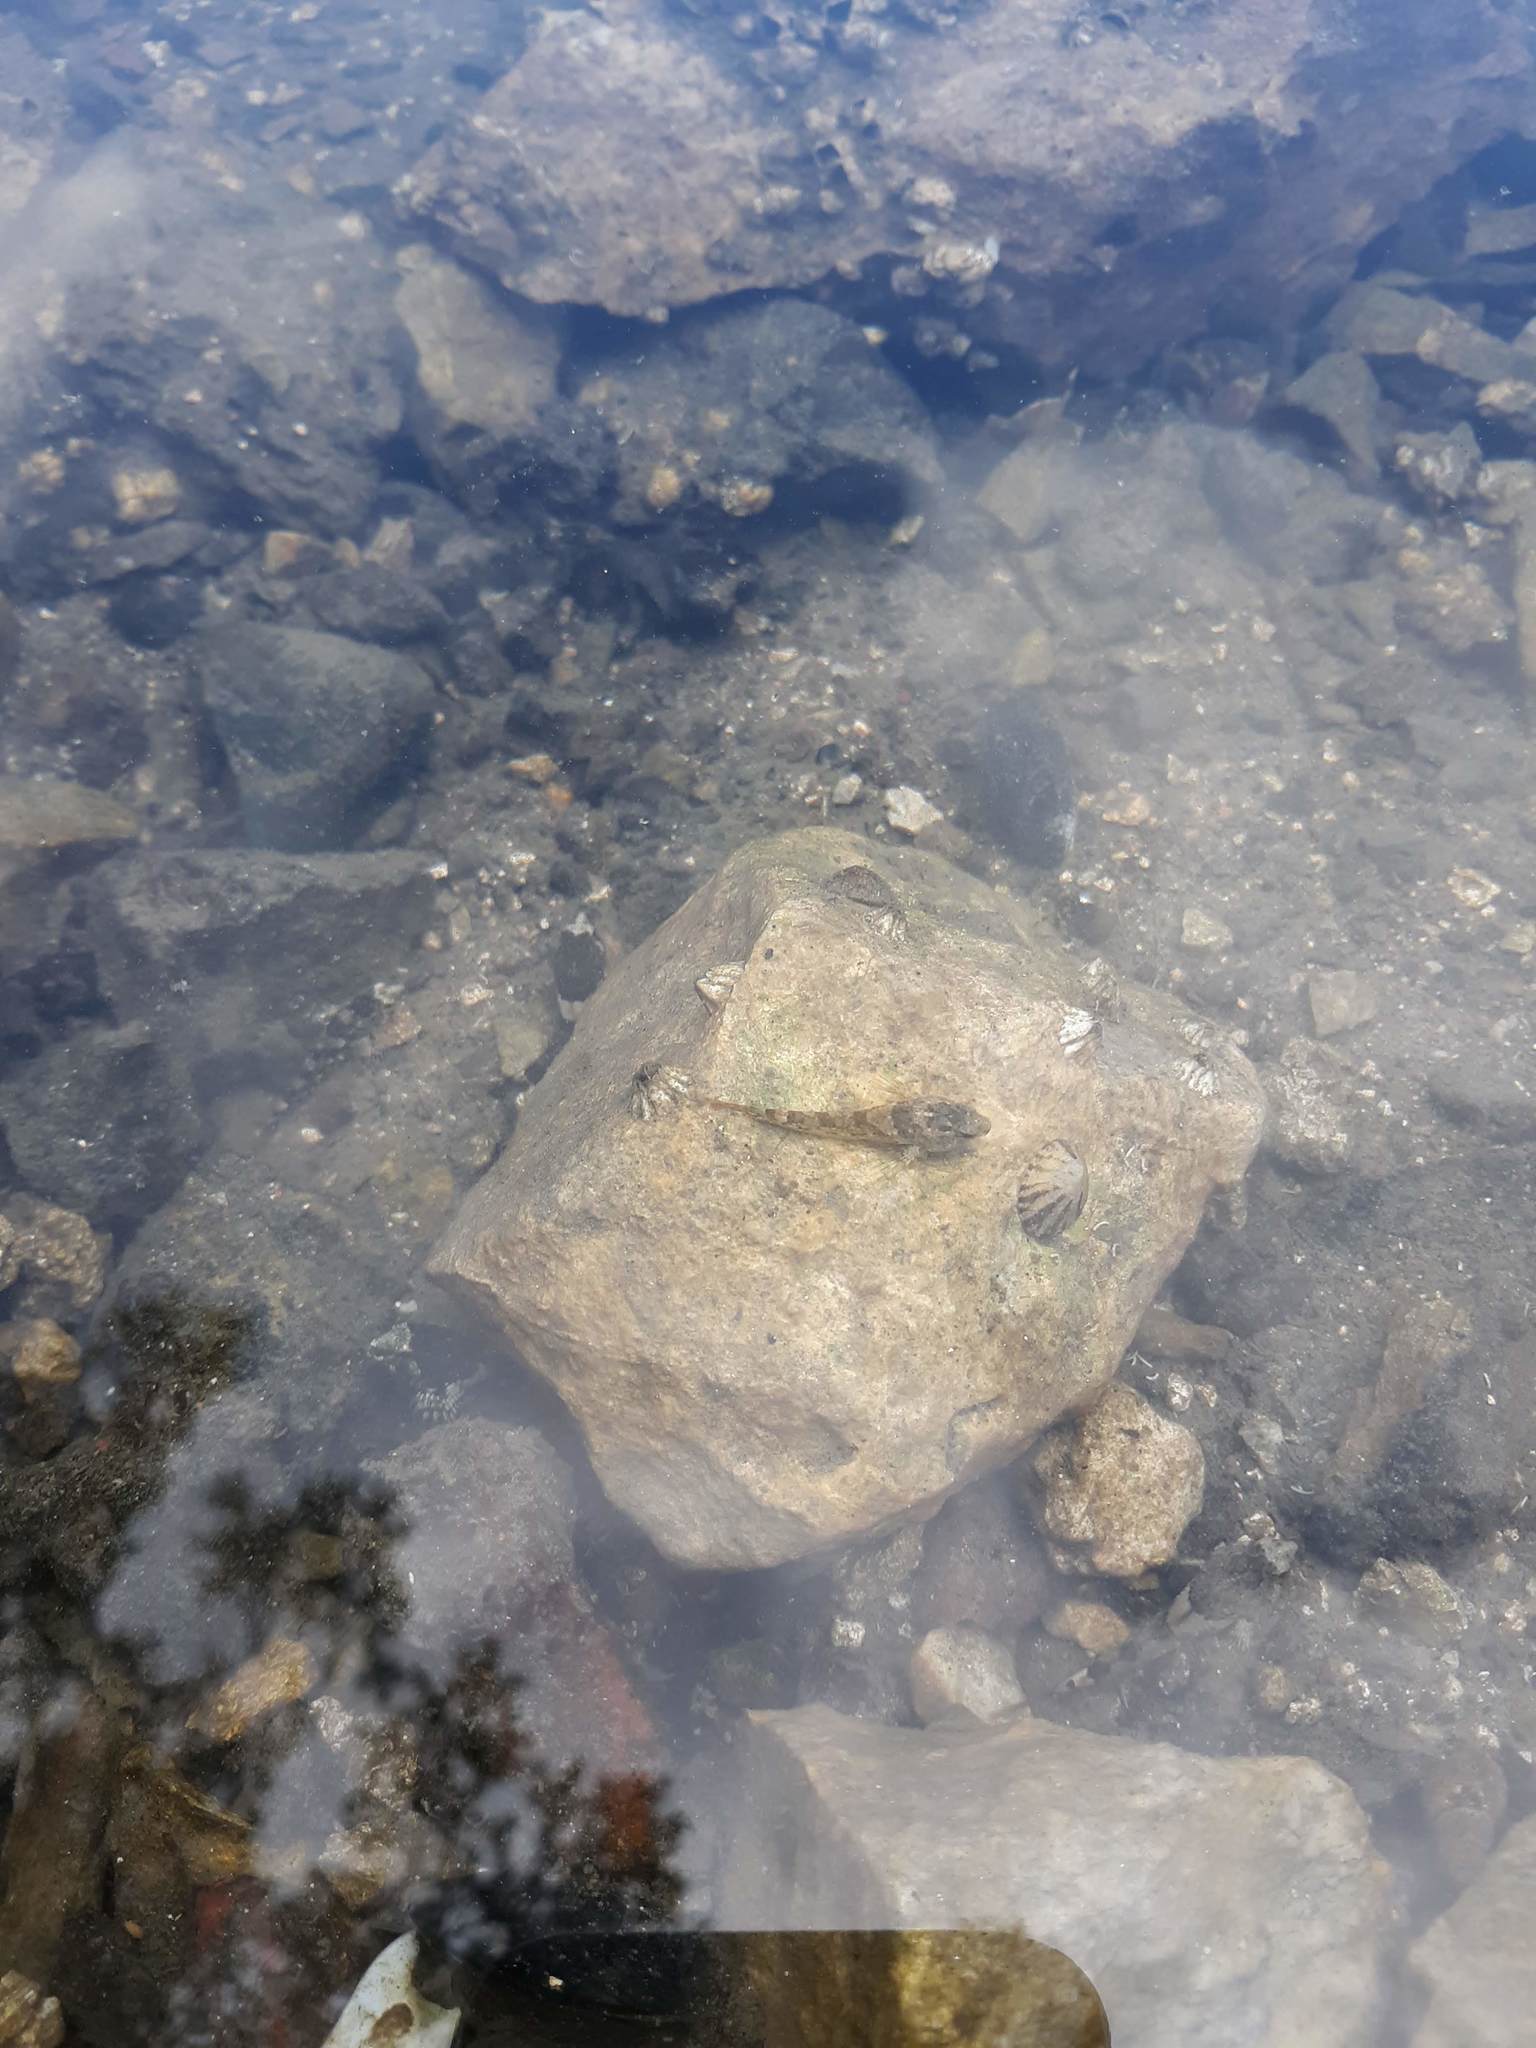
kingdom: Animalia
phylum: Chordata
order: Scorpaeniformes
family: Cottidae
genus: Oligocottus
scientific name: Oligocottus maculosus
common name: Tidepool sculpin
